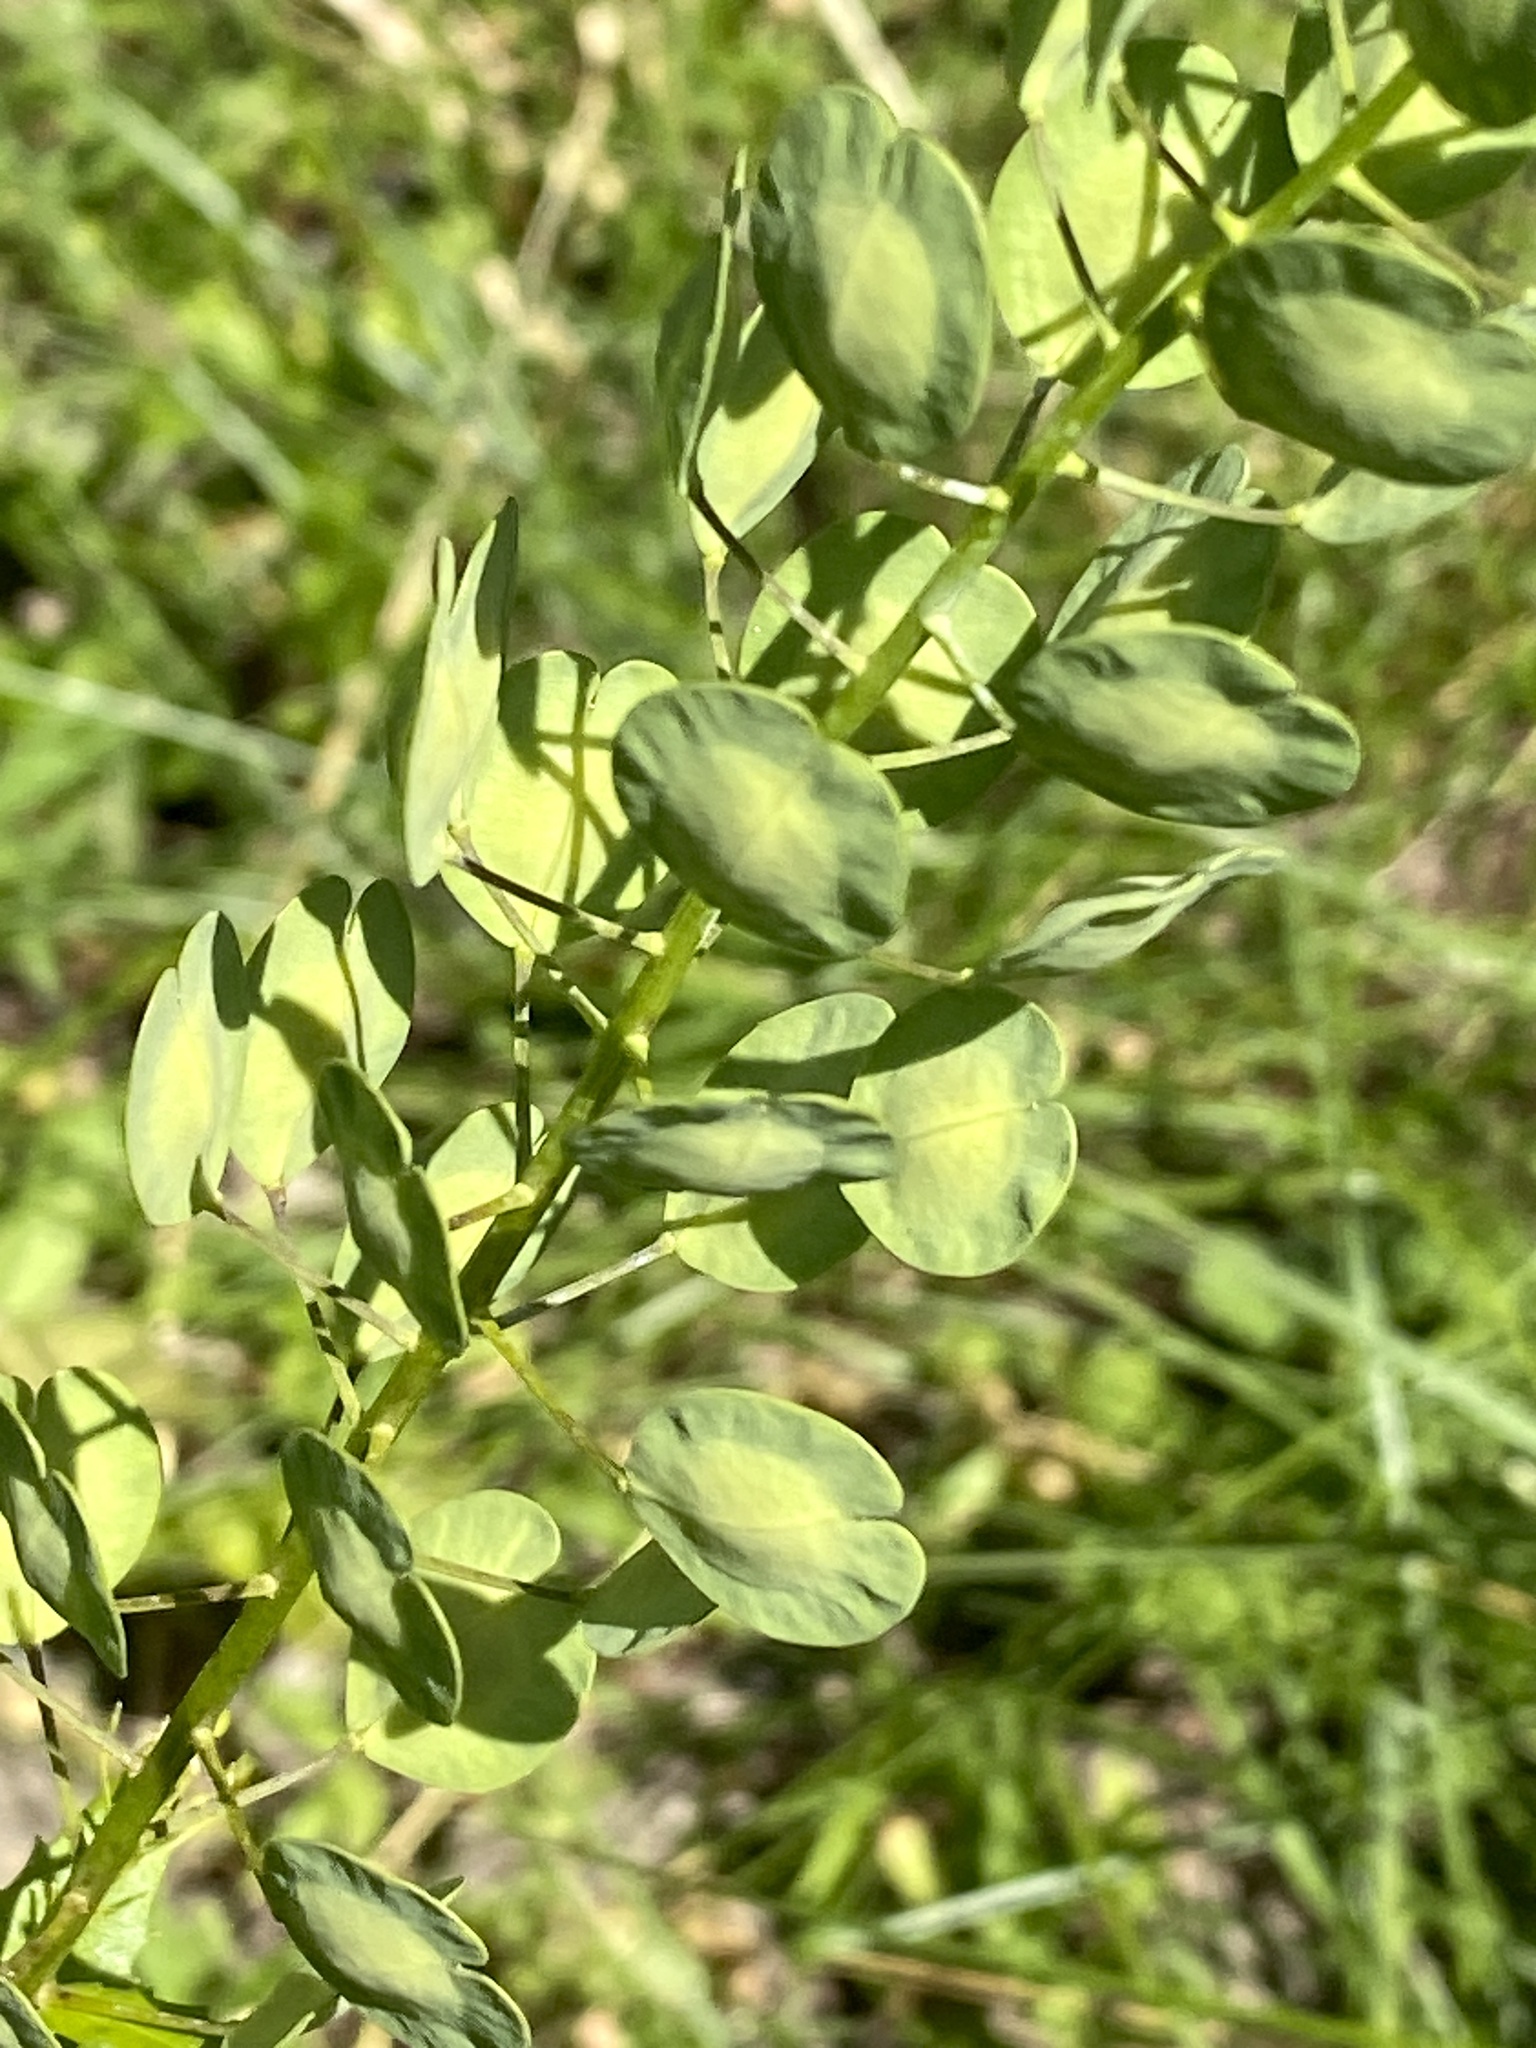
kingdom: Plantae
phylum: Tracheophyta
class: Magnoliopsida
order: Brassicales
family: Brassicaceae
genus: Thlaspi
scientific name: Thlaspi arvense
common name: Field pennycress
